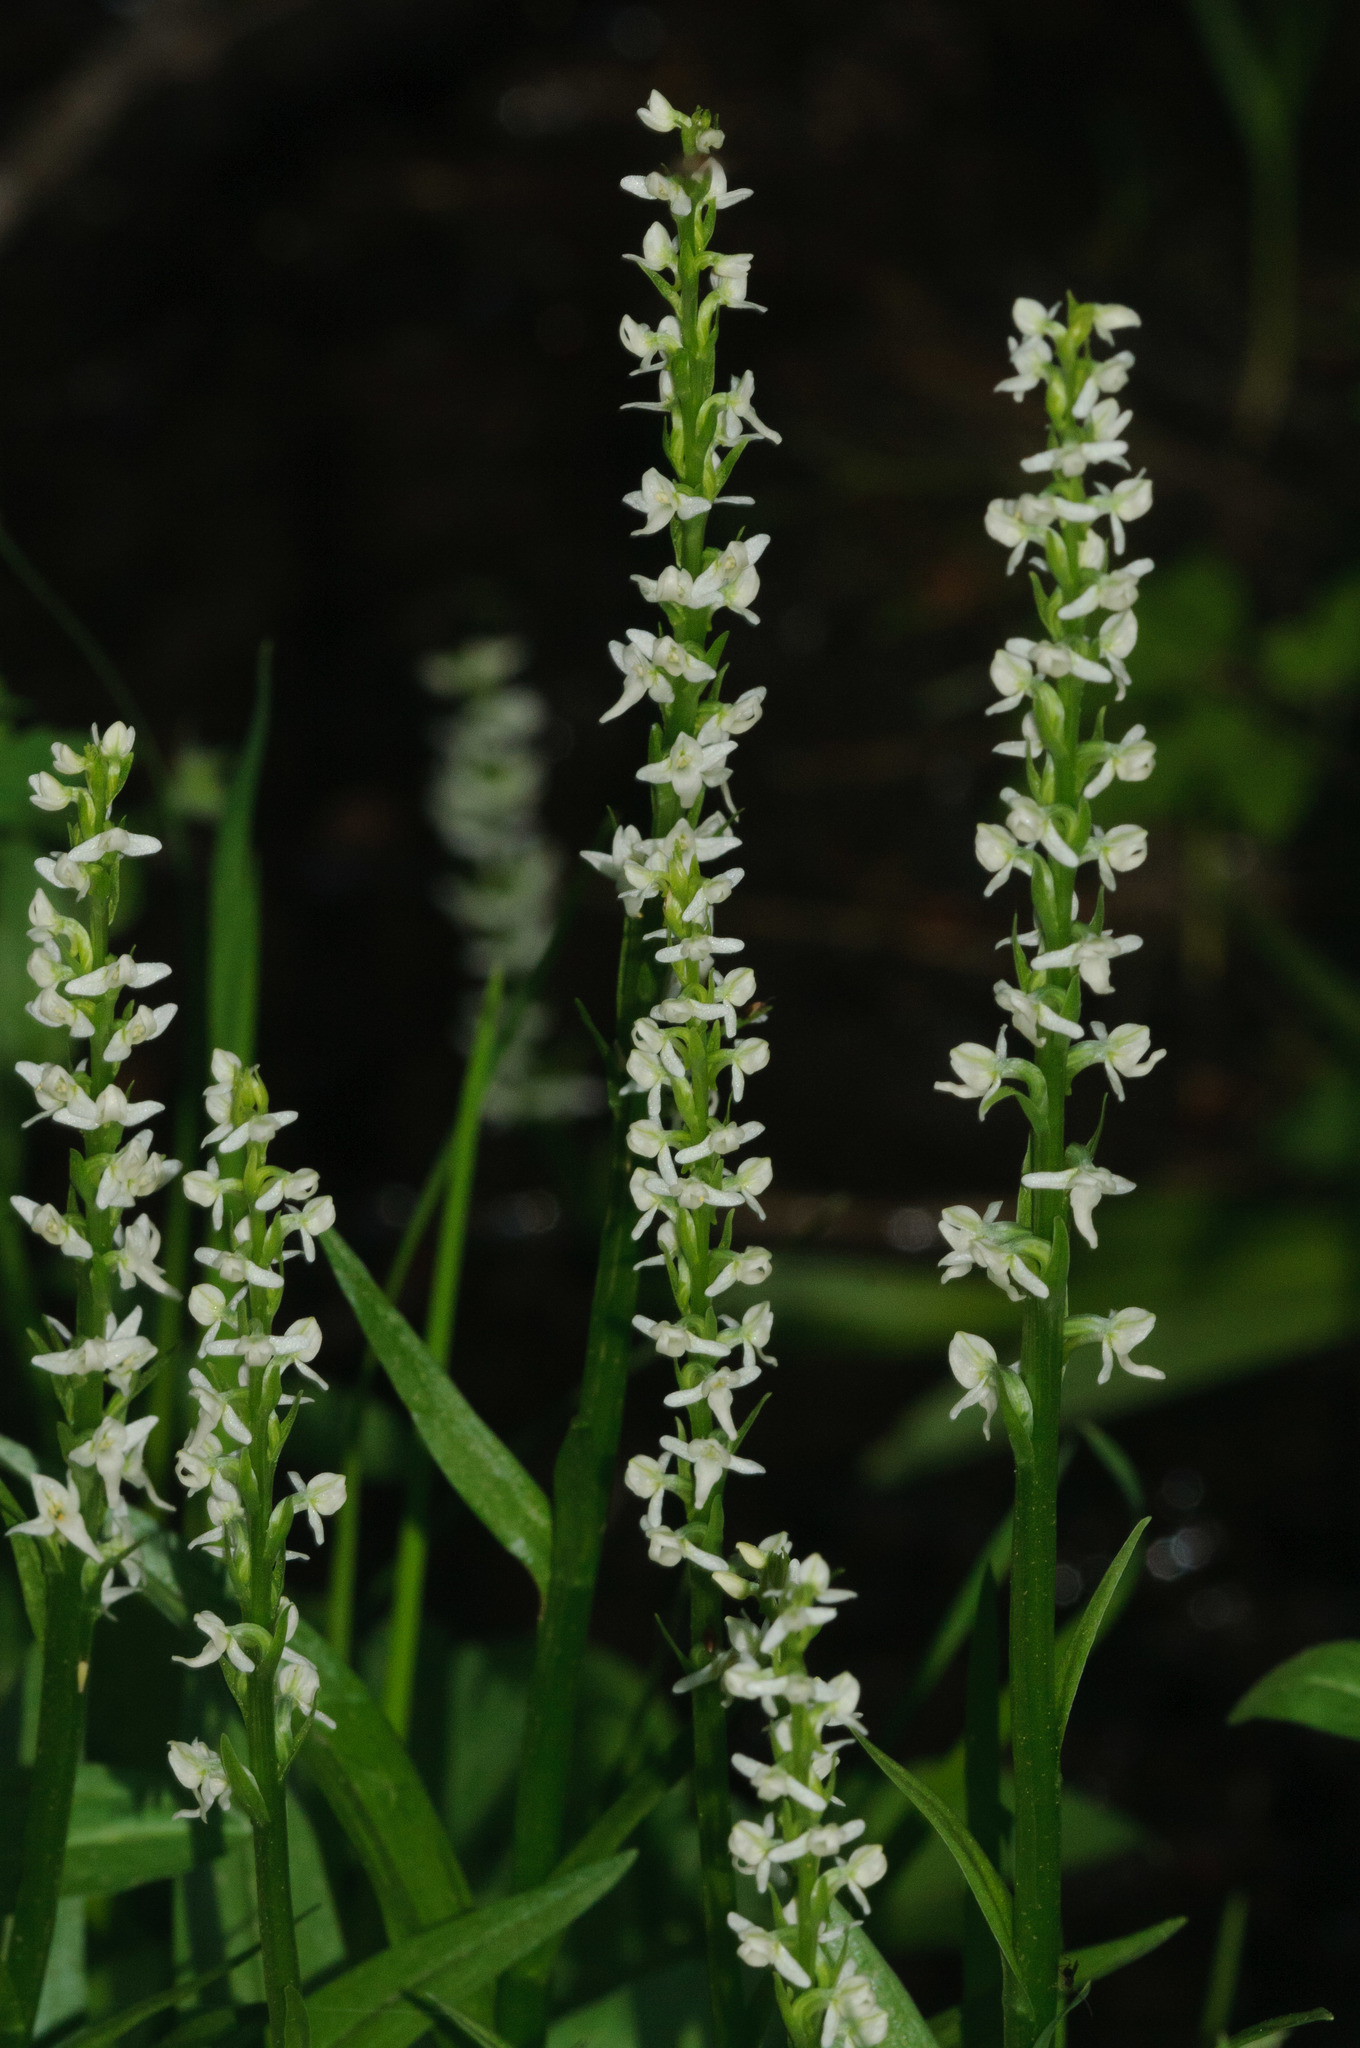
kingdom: Plantae
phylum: Tracheophyta
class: Liliopsida
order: Asparagales
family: Orchidaceae
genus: Platanthera
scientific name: Platanthera dilatata
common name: Bog candles
